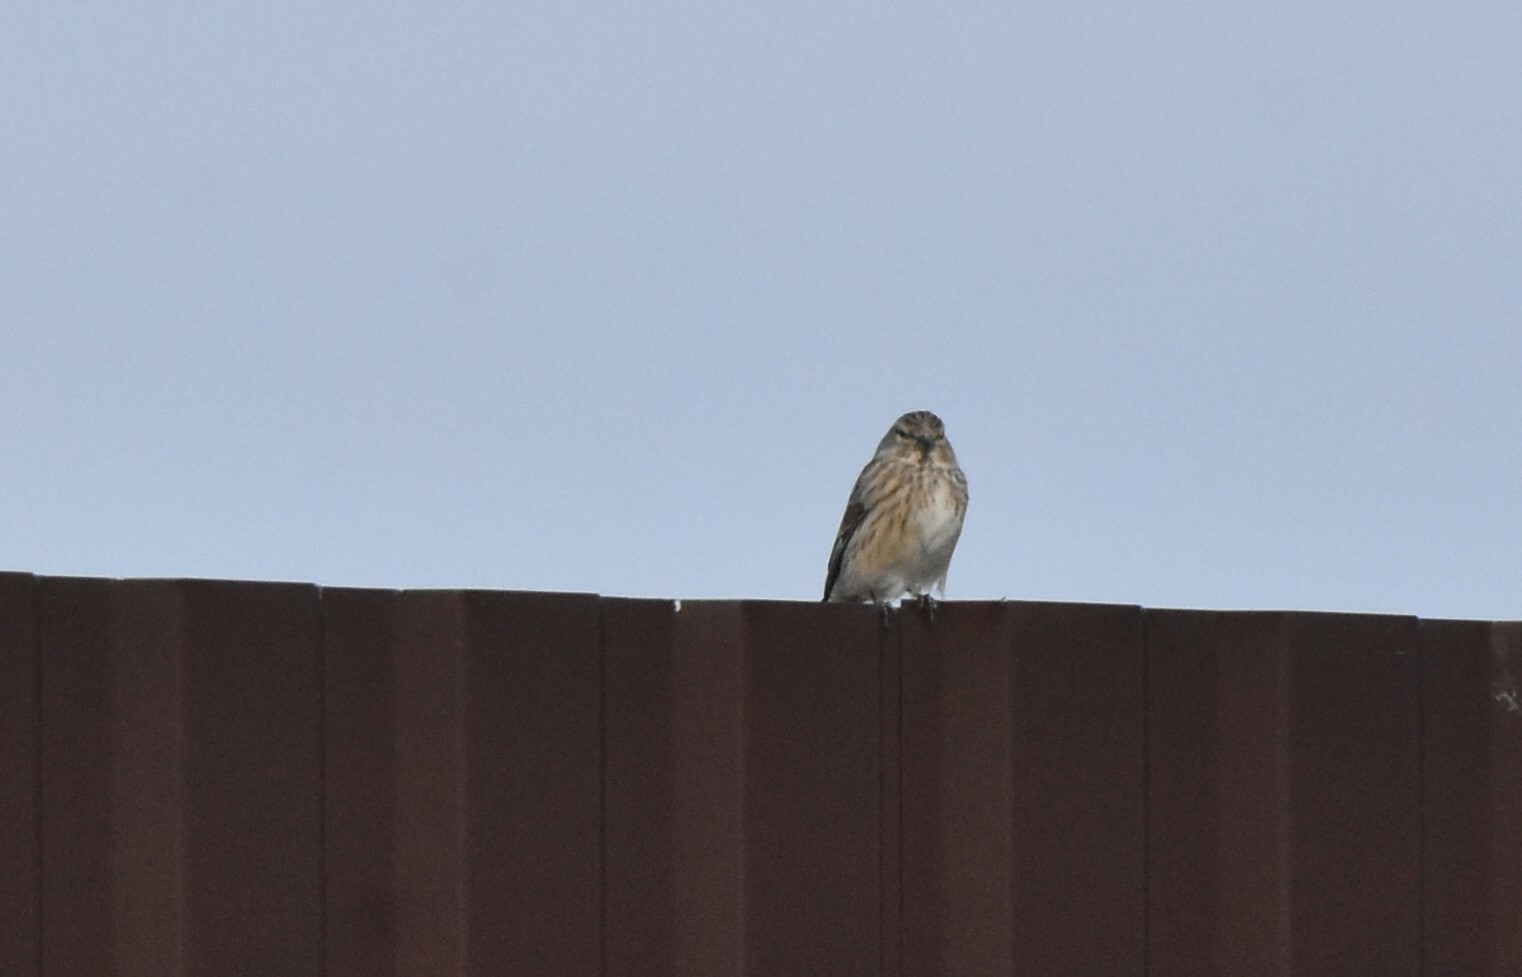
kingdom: Animalia
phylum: Chordata
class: Aves
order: Passeriformes
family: Fringillidae
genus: Linaria
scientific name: Linaria cannabina
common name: Common linnet
